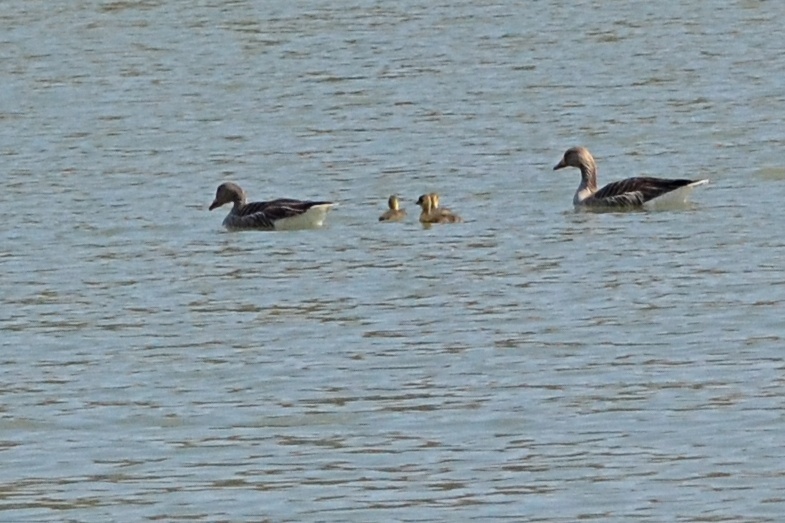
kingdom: Animalia
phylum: Chordata
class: Aves
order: Anseriformes
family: Anatidae
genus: Anser
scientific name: Anser anser
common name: Greylag goose
